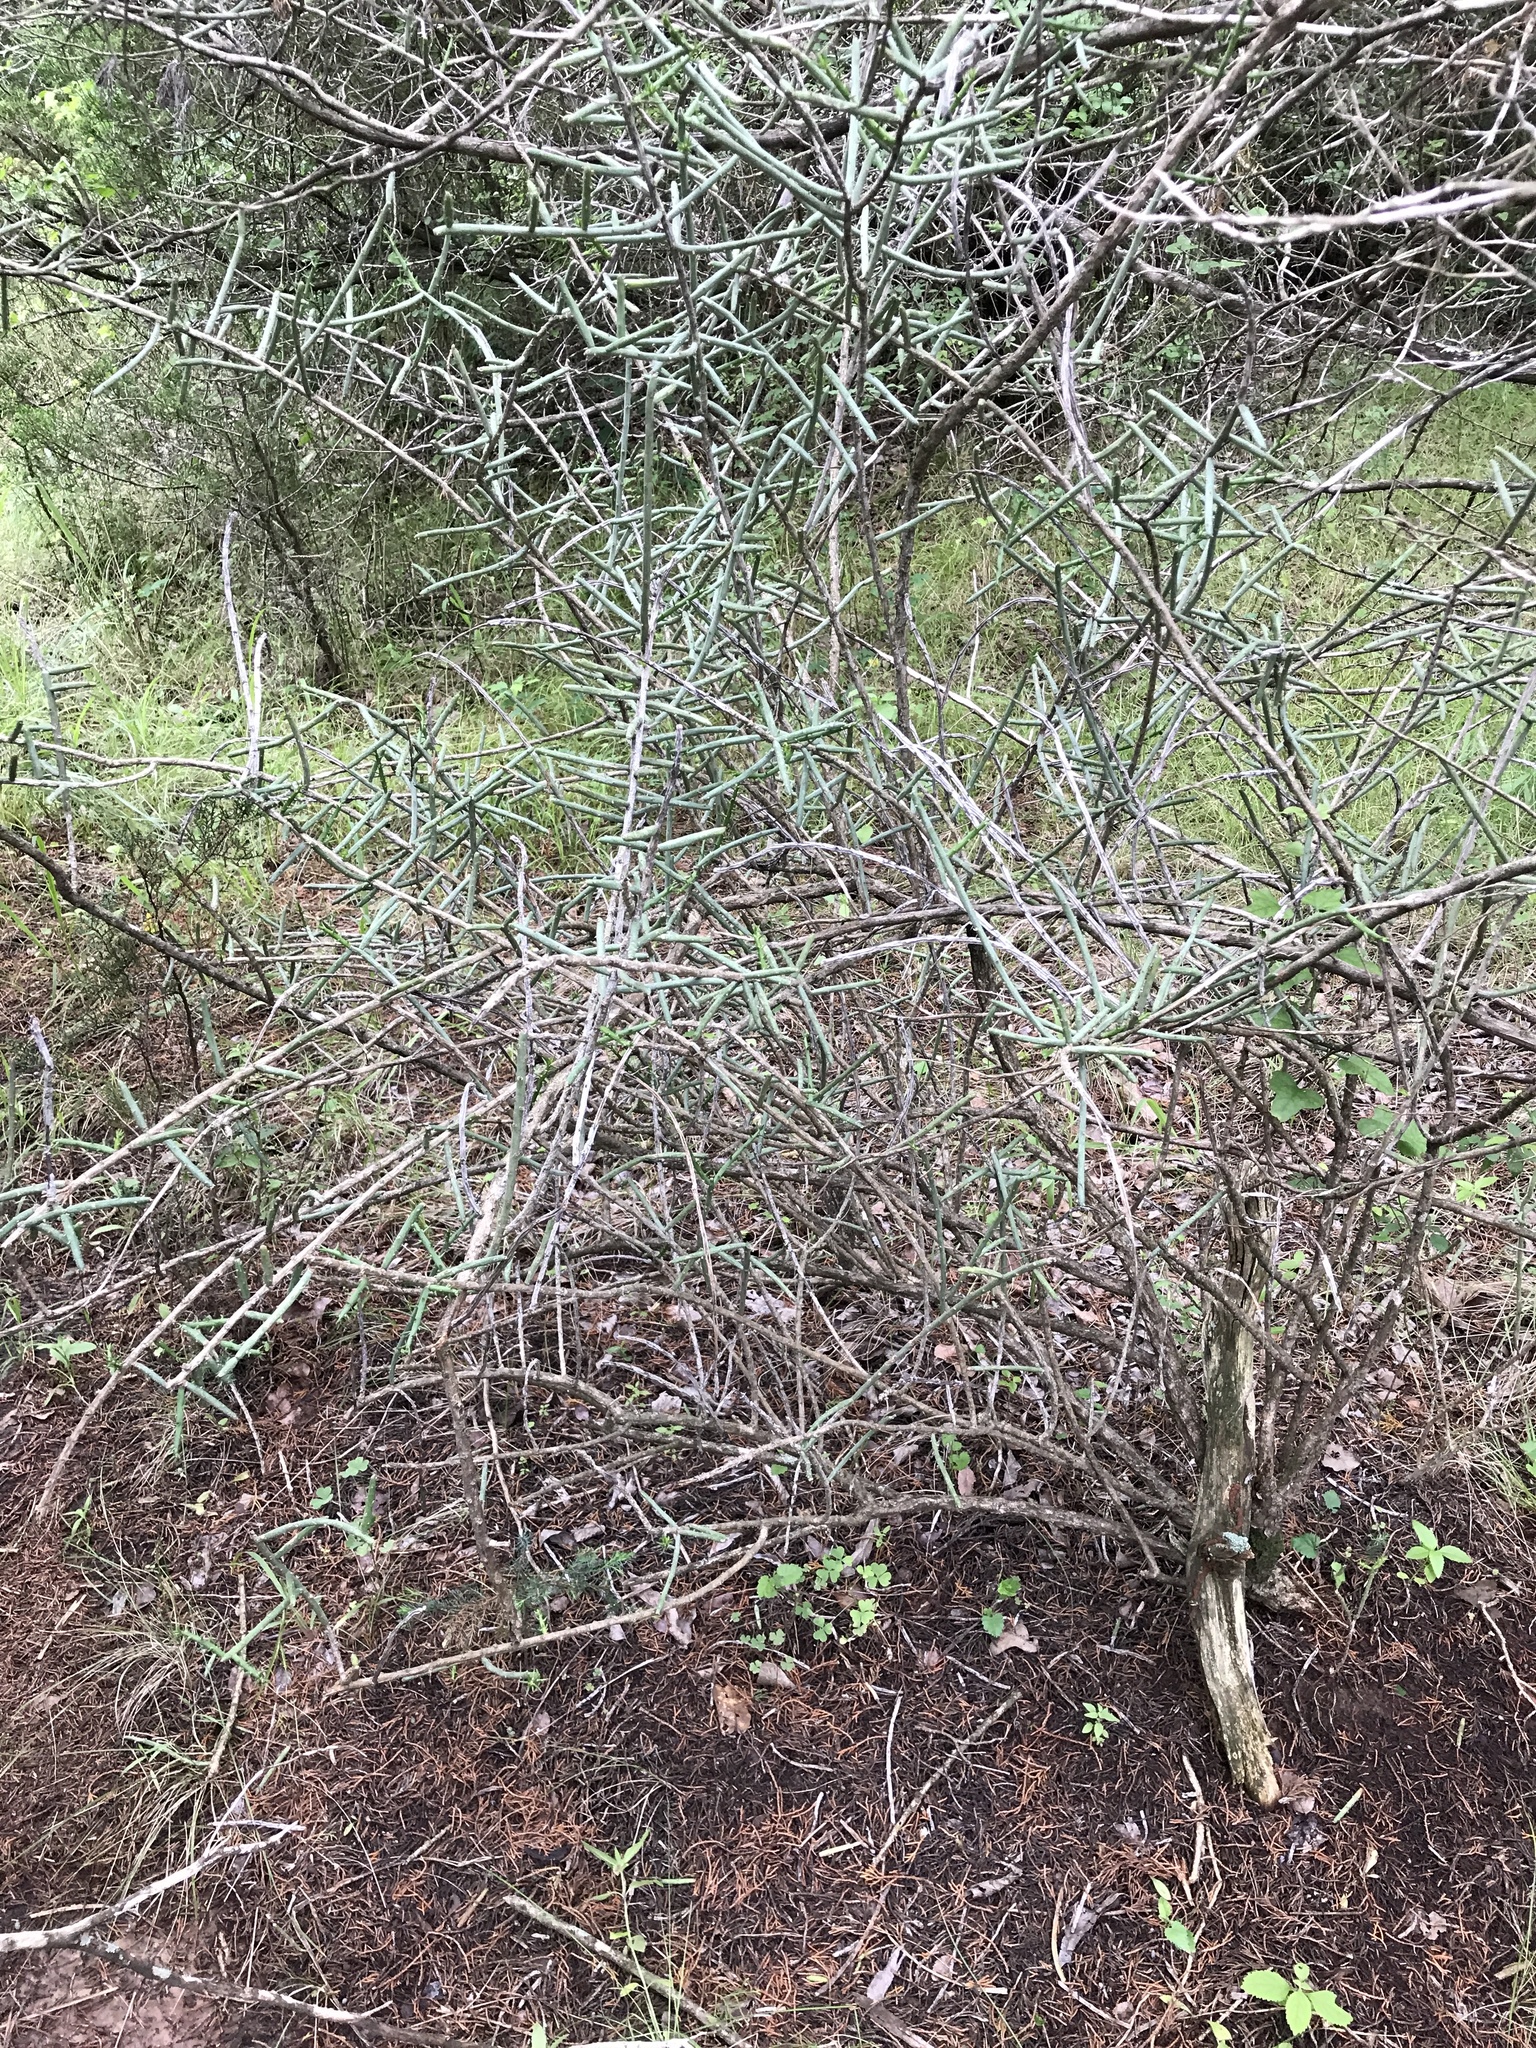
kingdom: Plantae
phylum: Tracheophyta
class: Magnoliopsida
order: Caryophyllales
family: Cactaceae
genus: Cylindropuntia
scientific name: Cylindropuntia leptocaulis
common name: Christmas cactus
